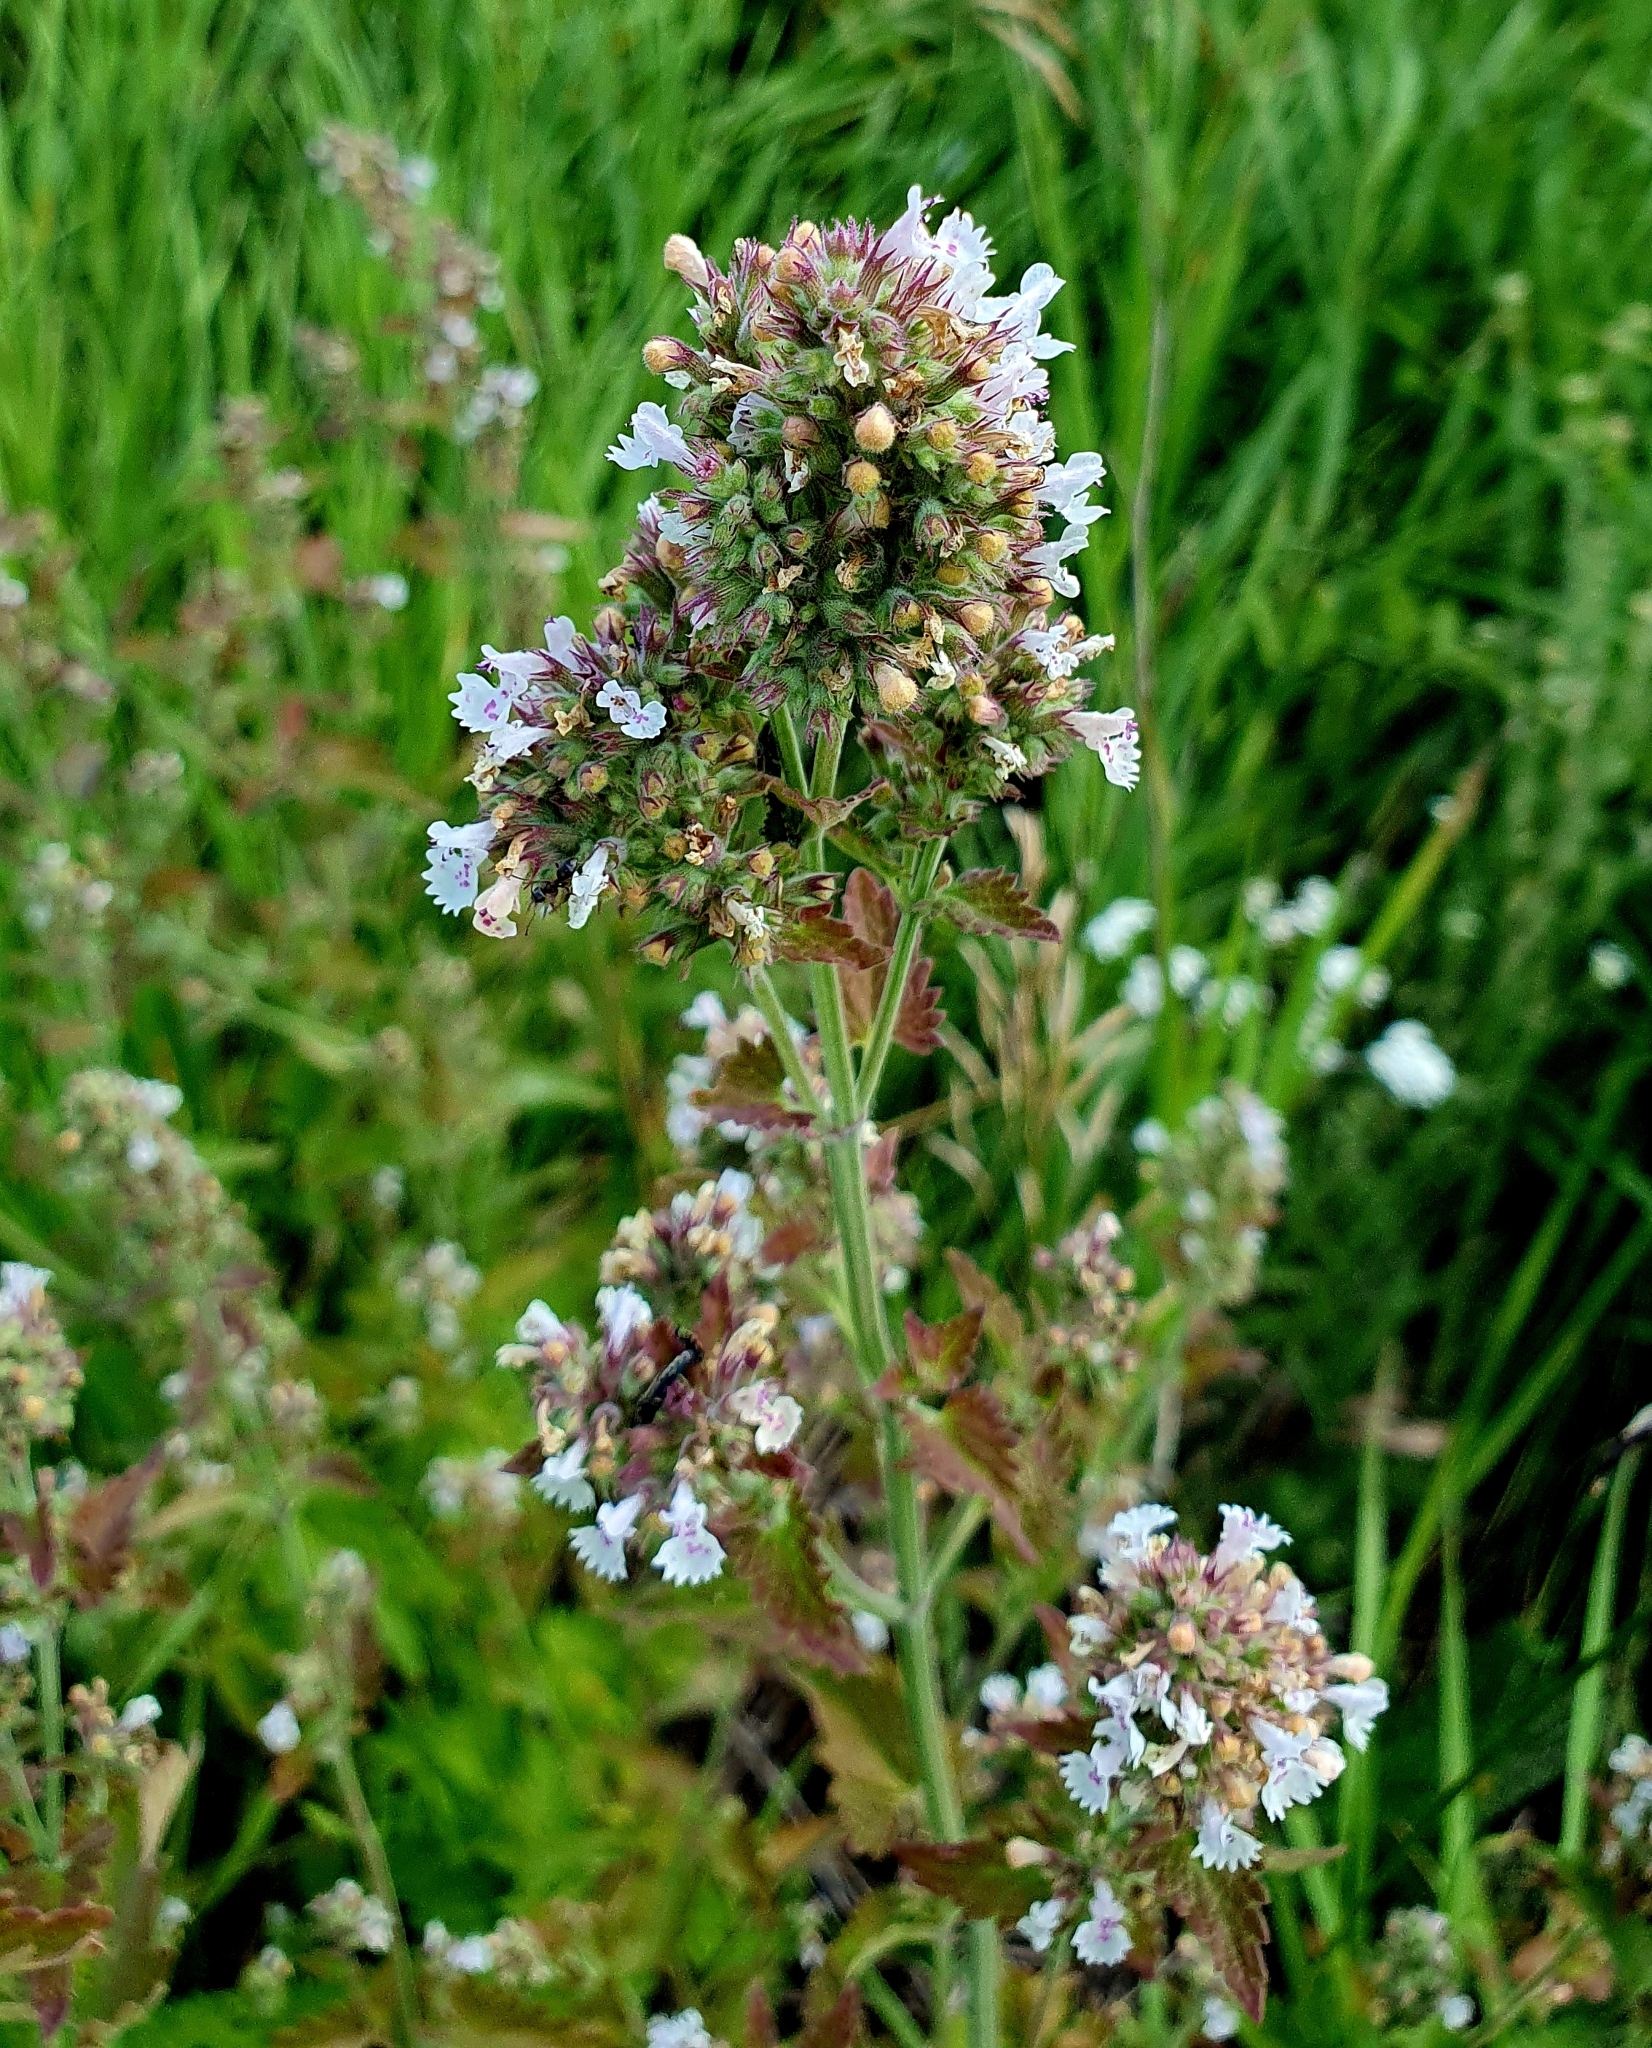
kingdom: Plantae
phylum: Tracheophyta
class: Magnoliopsida
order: Lamiales
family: Lamiaceae
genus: Nepeta
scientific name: Nepeta cataria
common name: Catnip
